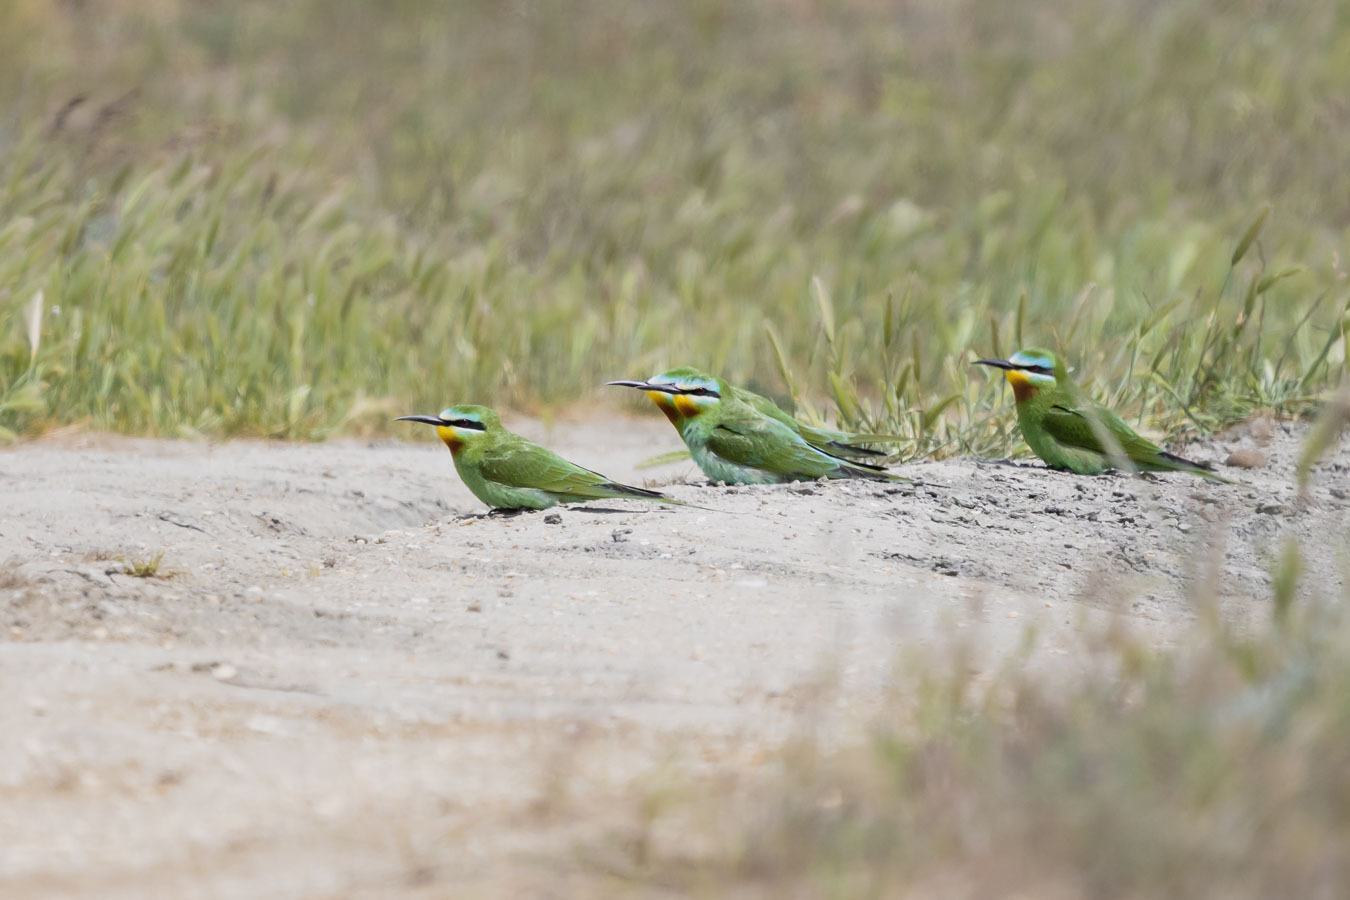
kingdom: Animalia
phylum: Chordata
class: Aves
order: Coraciiformes
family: Meropidae
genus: Merops
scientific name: Merops persicus
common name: Blue-cheeked bee-eater
